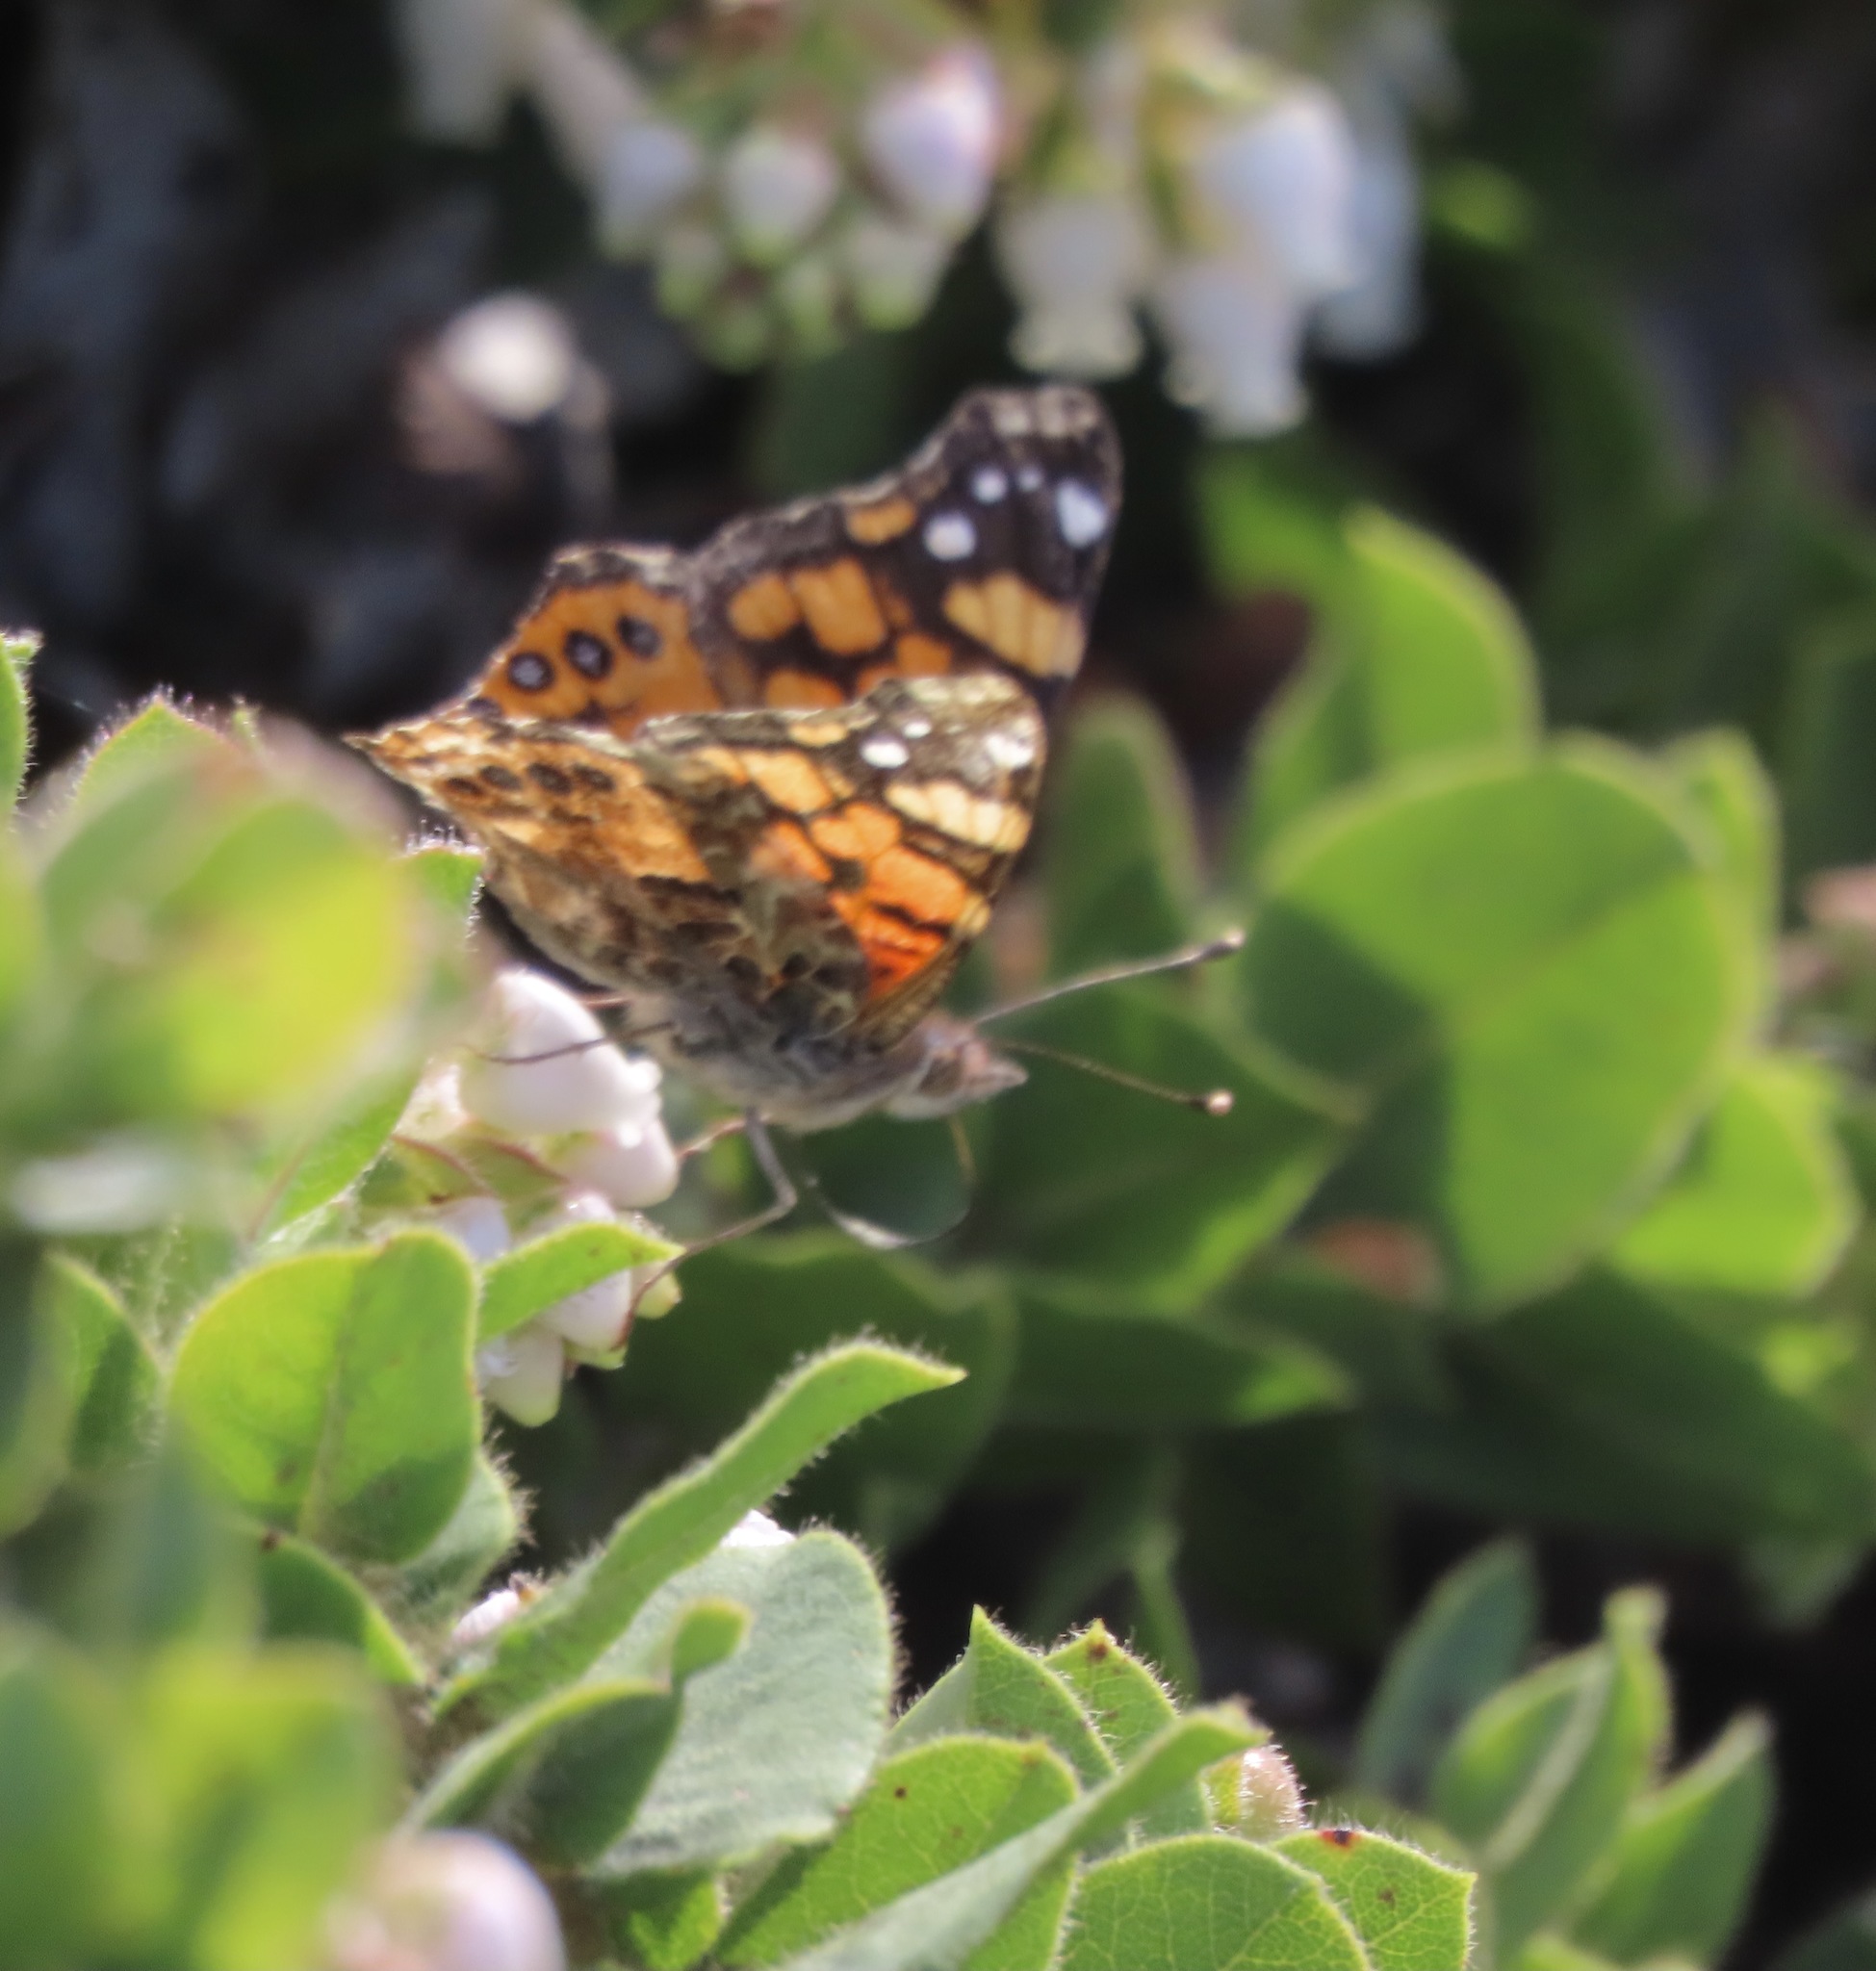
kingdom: Animalia
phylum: Arthropoda
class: Insecta
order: Lepidoptera
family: Nymphalidae
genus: Vanessa
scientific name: Vanessa annabella
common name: West coast lady
